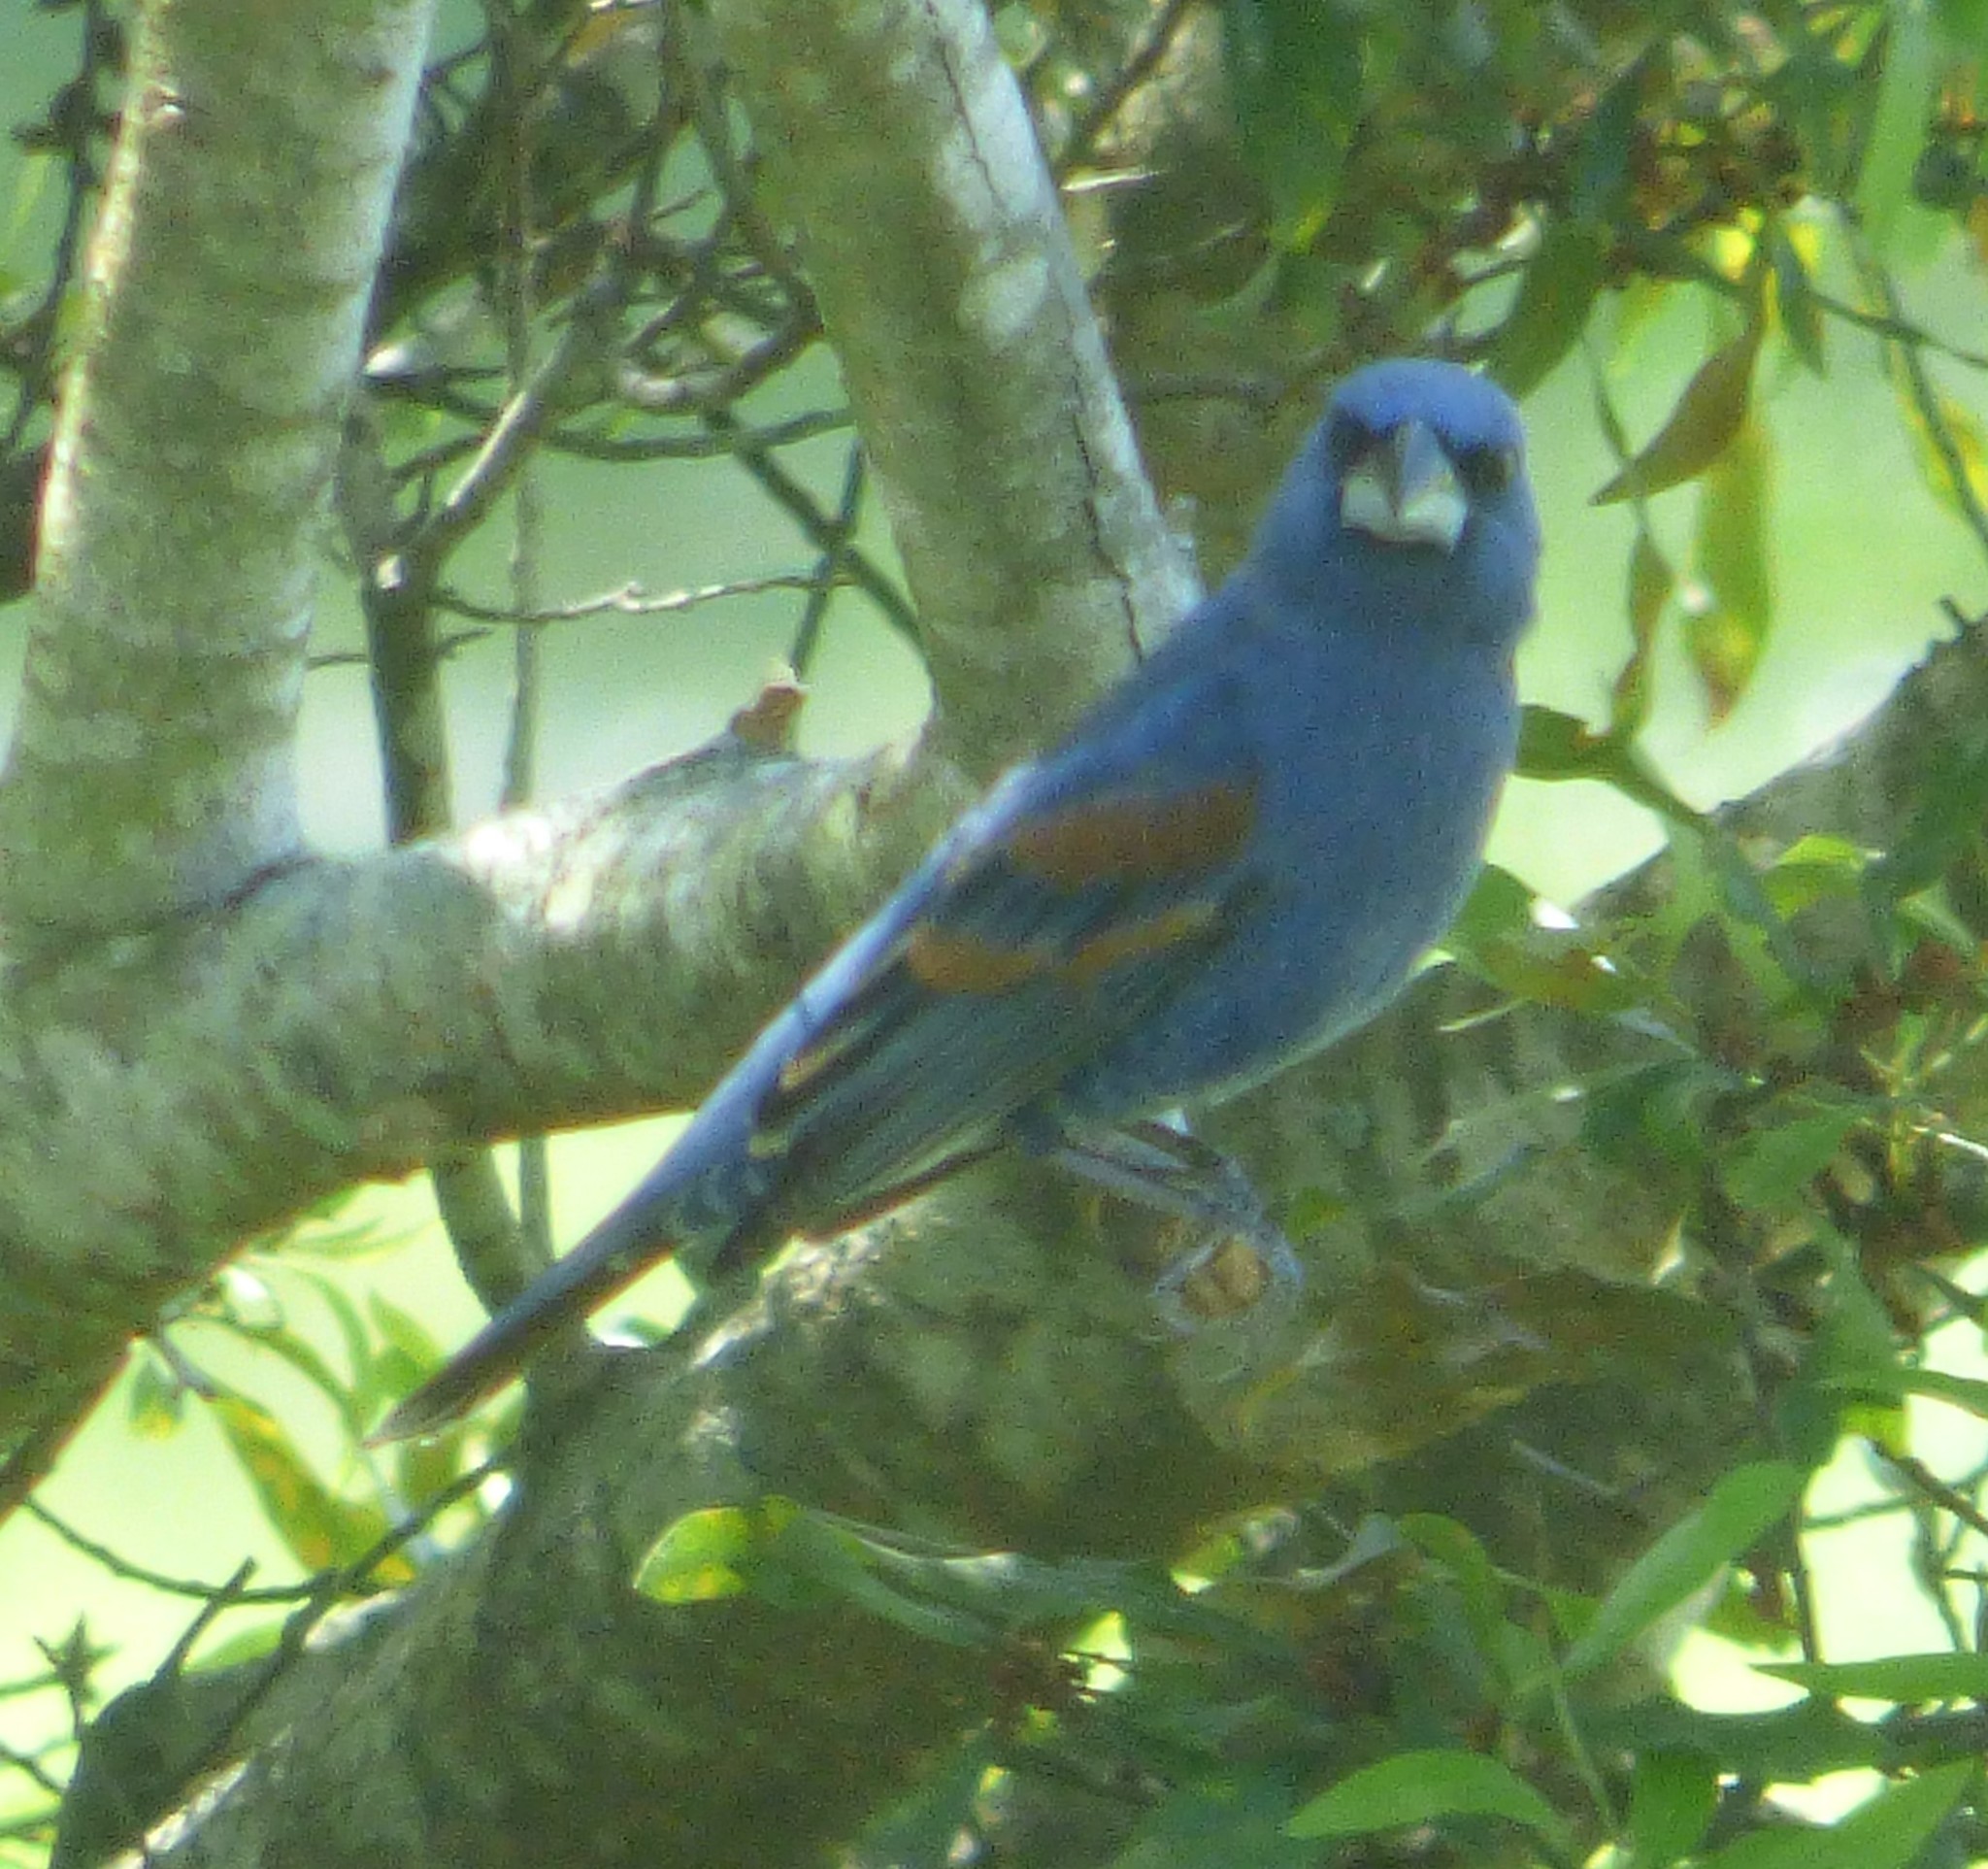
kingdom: Animalia
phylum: Chordata
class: Aves
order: Passeriformes
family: Cardinalidae
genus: Passerina
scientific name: Passerina caerulea
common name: Blue grosbeak
